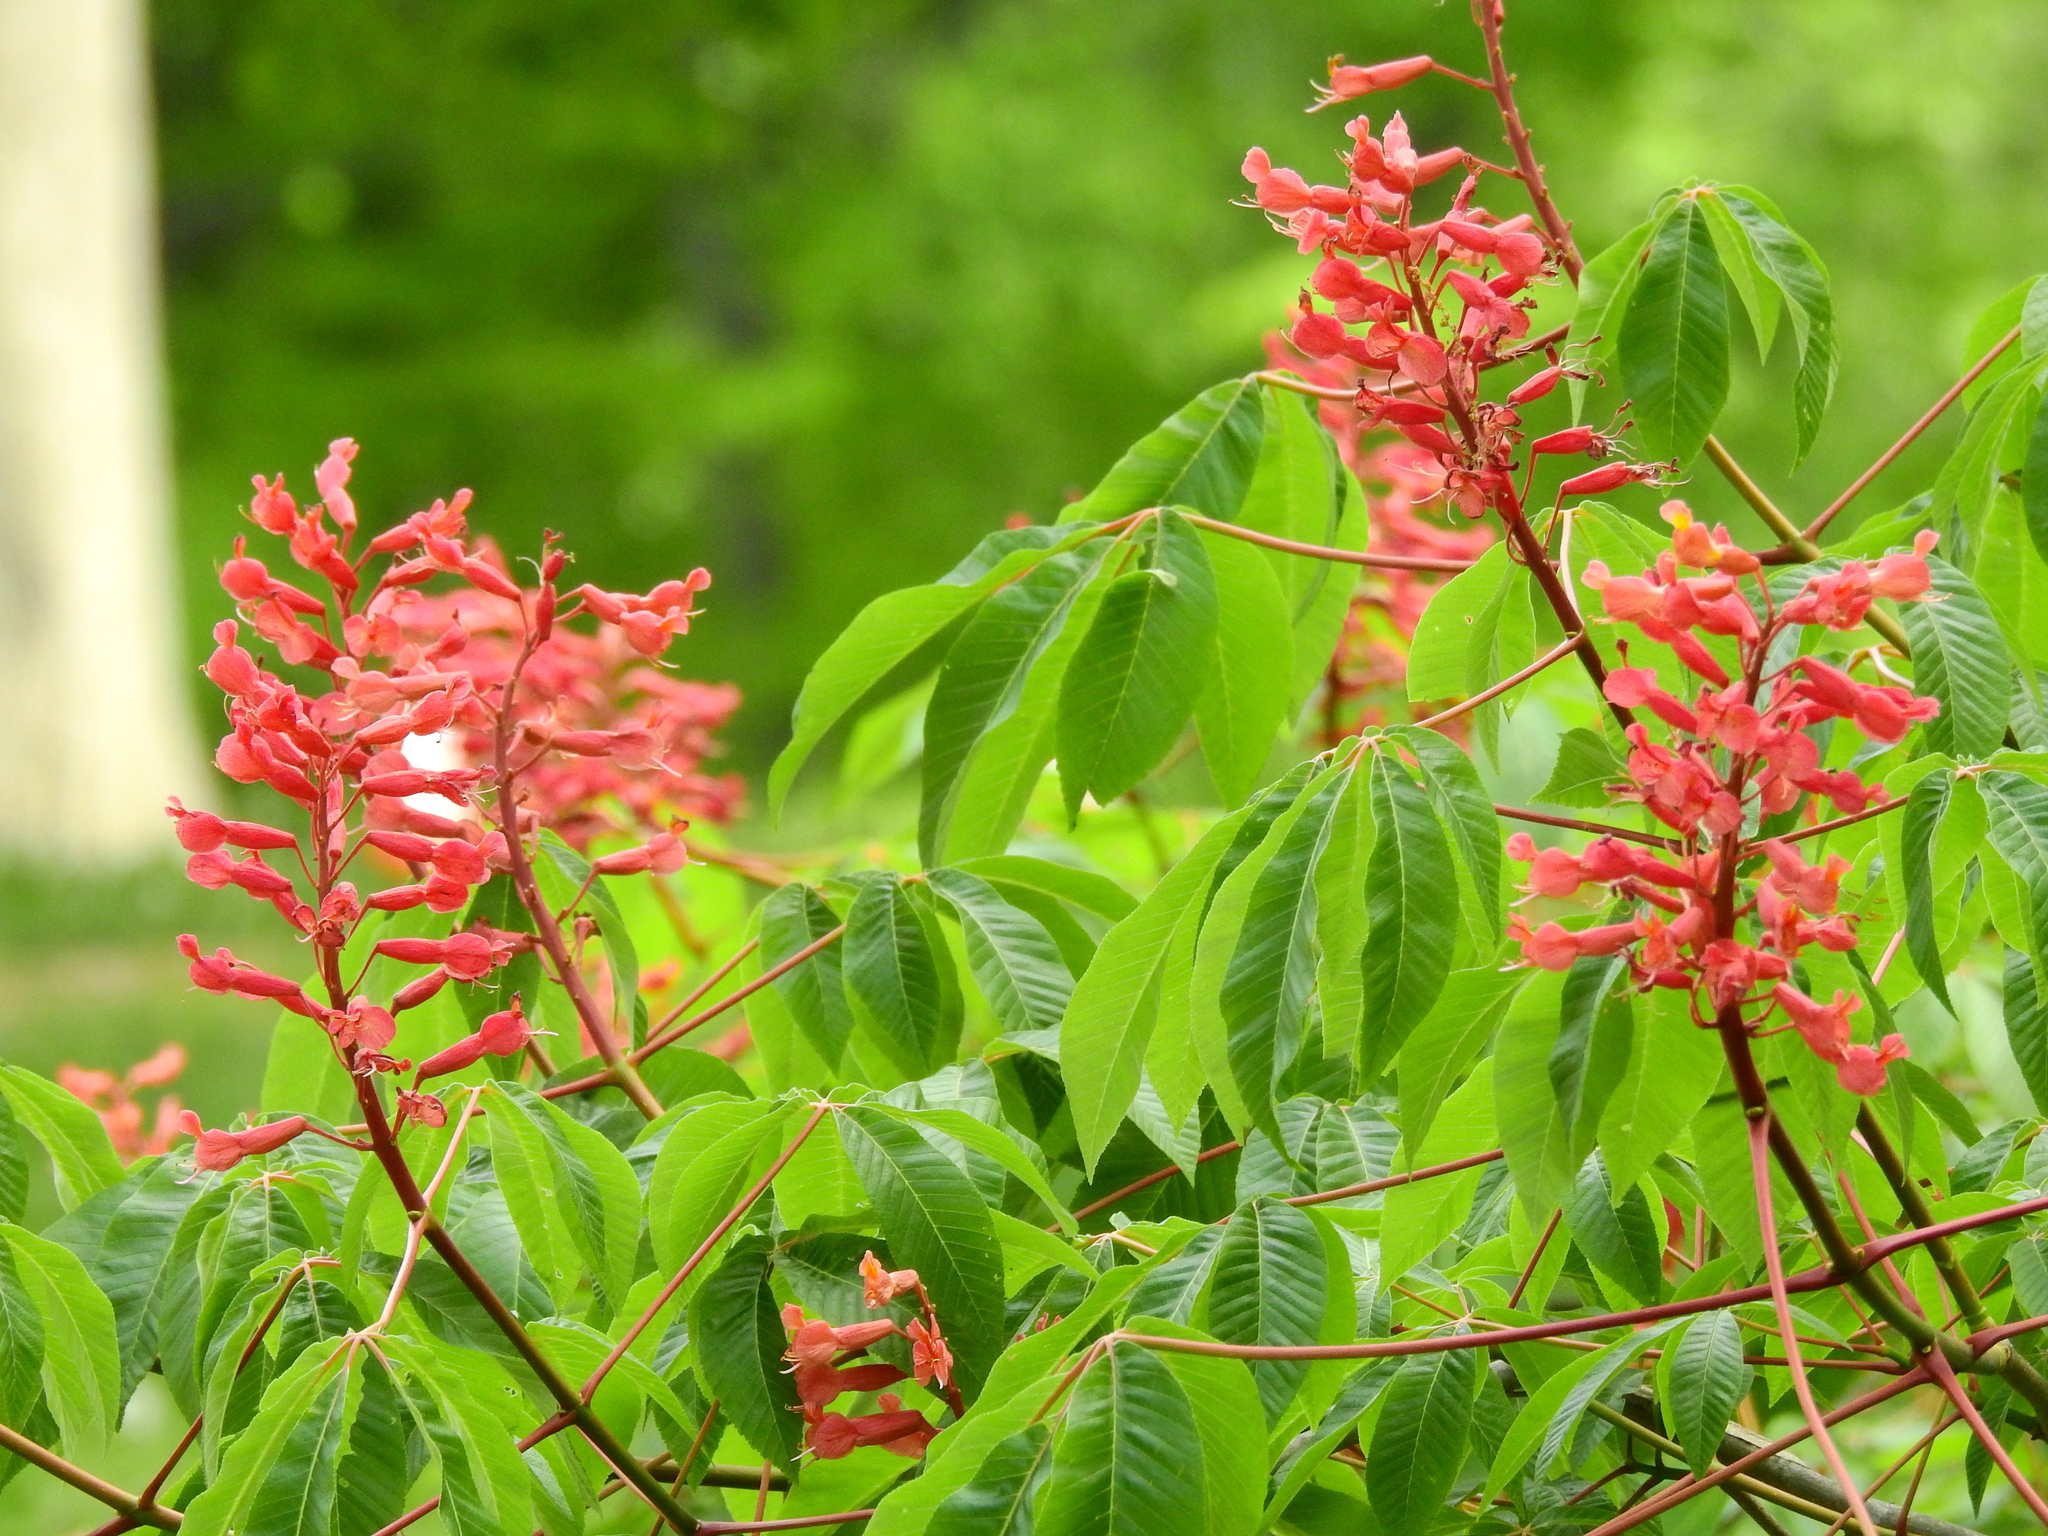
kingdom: Plantae
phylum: Tracheophyta
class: Magnoliopsida
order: Sapindales
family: Sapindaceae
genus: Aesculus
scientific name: Aesculus pavia
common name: Red buckeye
